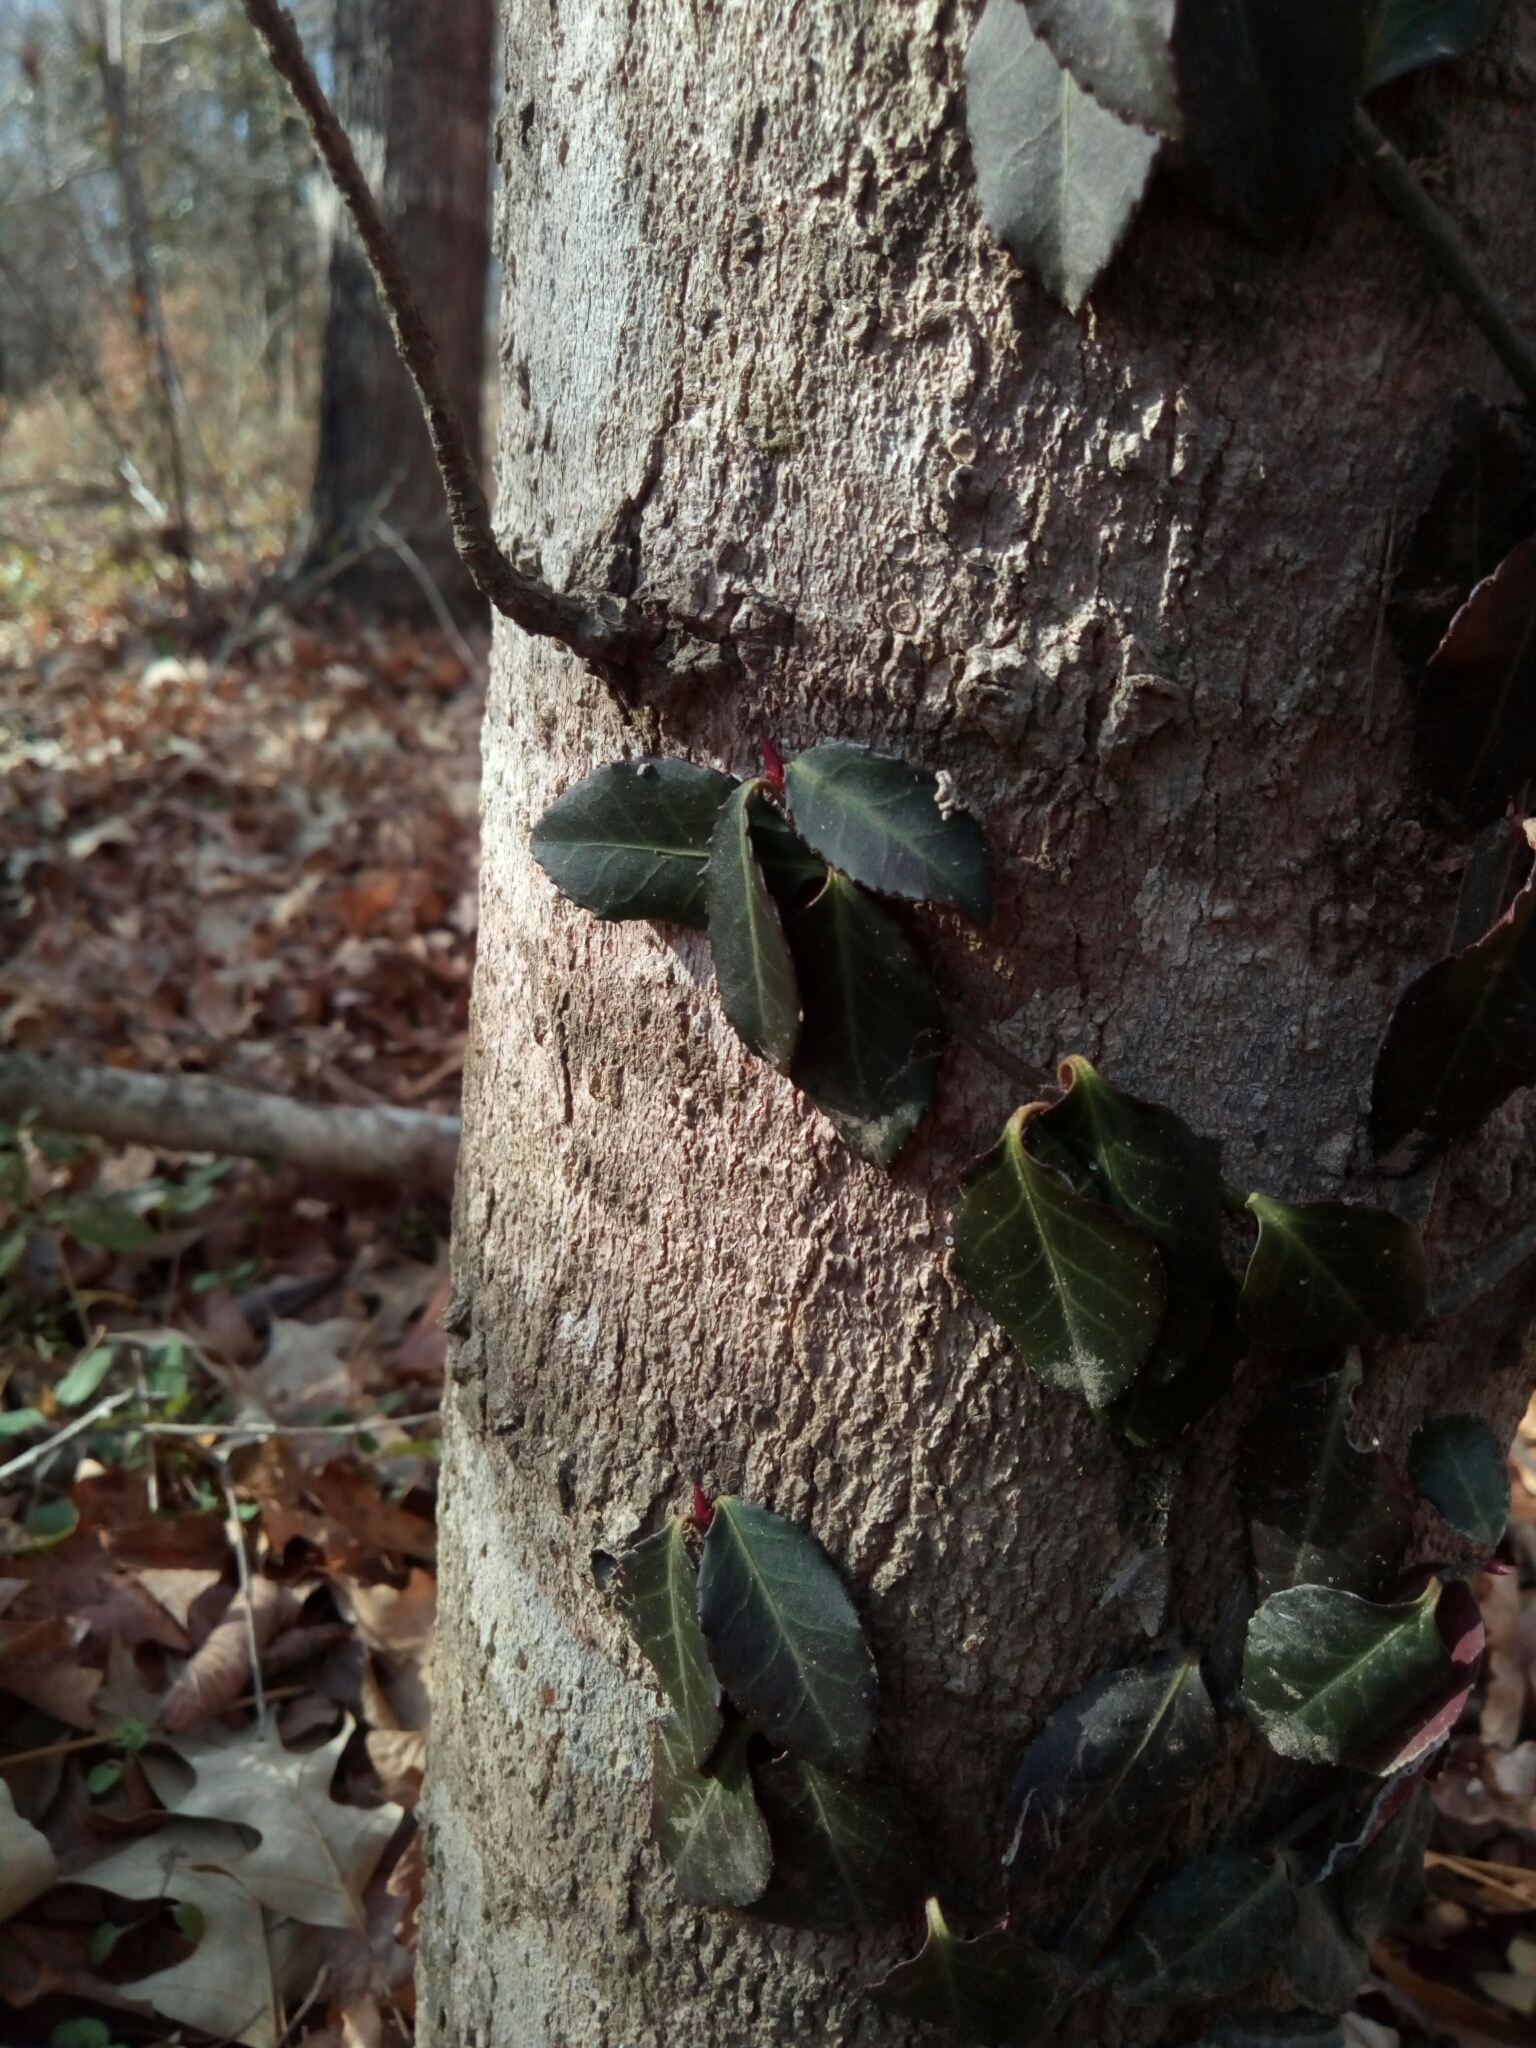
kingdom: Plantae
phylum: Tracheophyta
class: Magnoliopsida
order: Celastrales
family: Celastraceae
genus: Euonymus
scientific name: Euonymus fortunei
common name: Climbing euonymus
